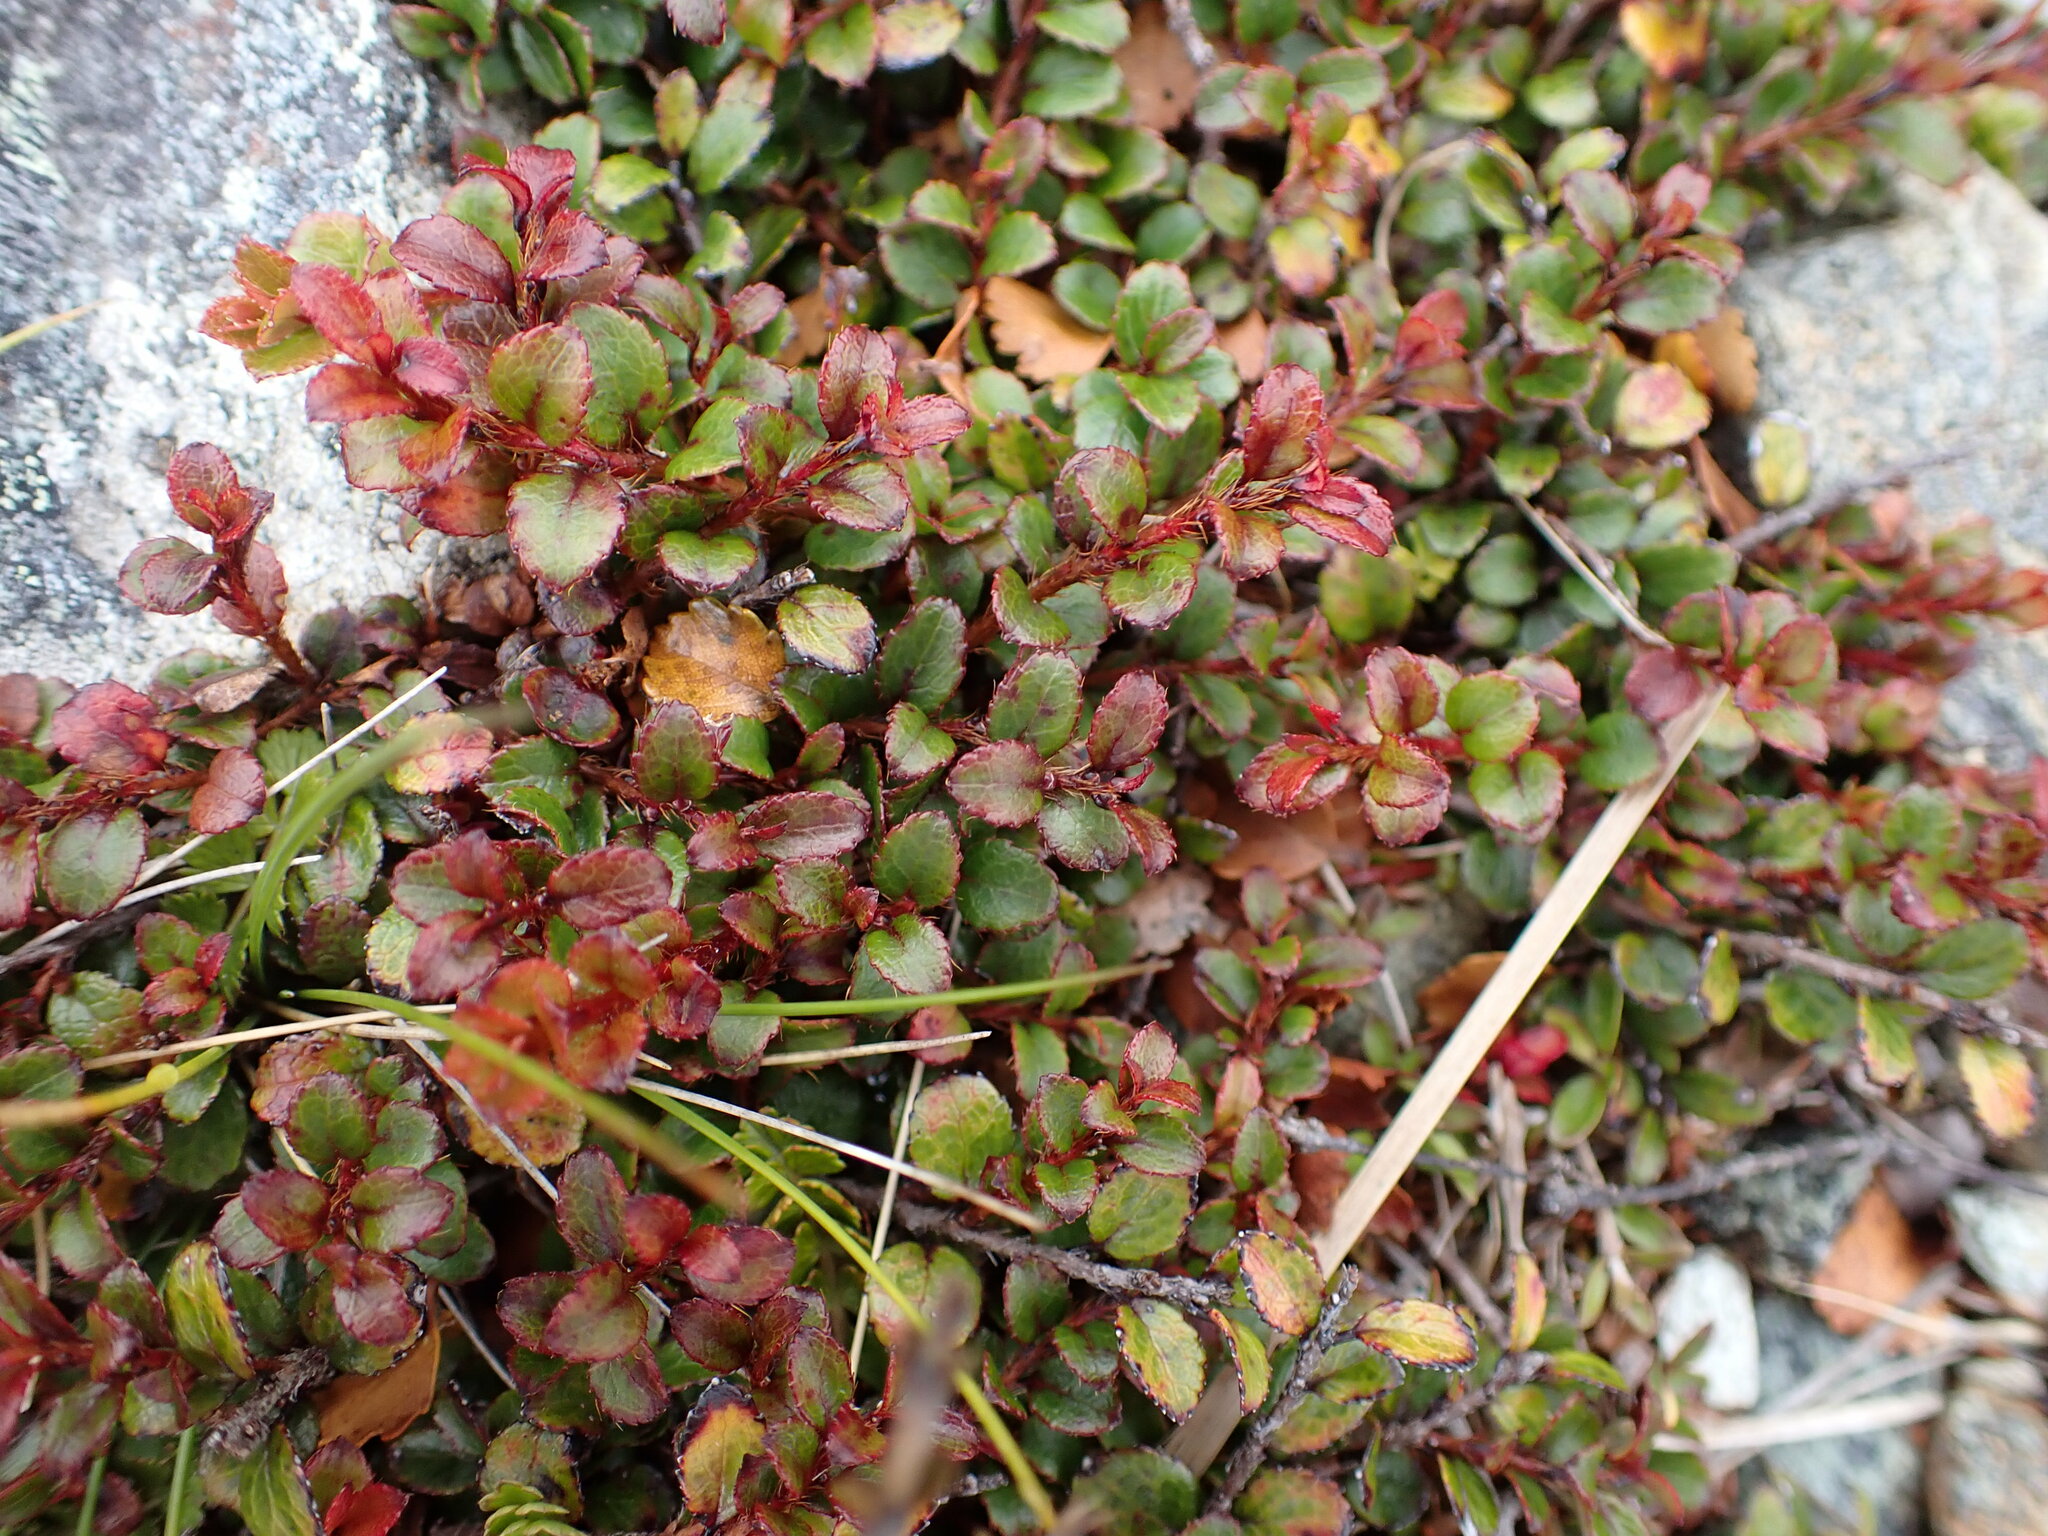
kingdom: Plantae
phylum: Tracheophyta
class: Magnoliopsida
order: Ericales
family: Ericaceae
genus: Gaultheria
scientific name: Gaultheria depressa
